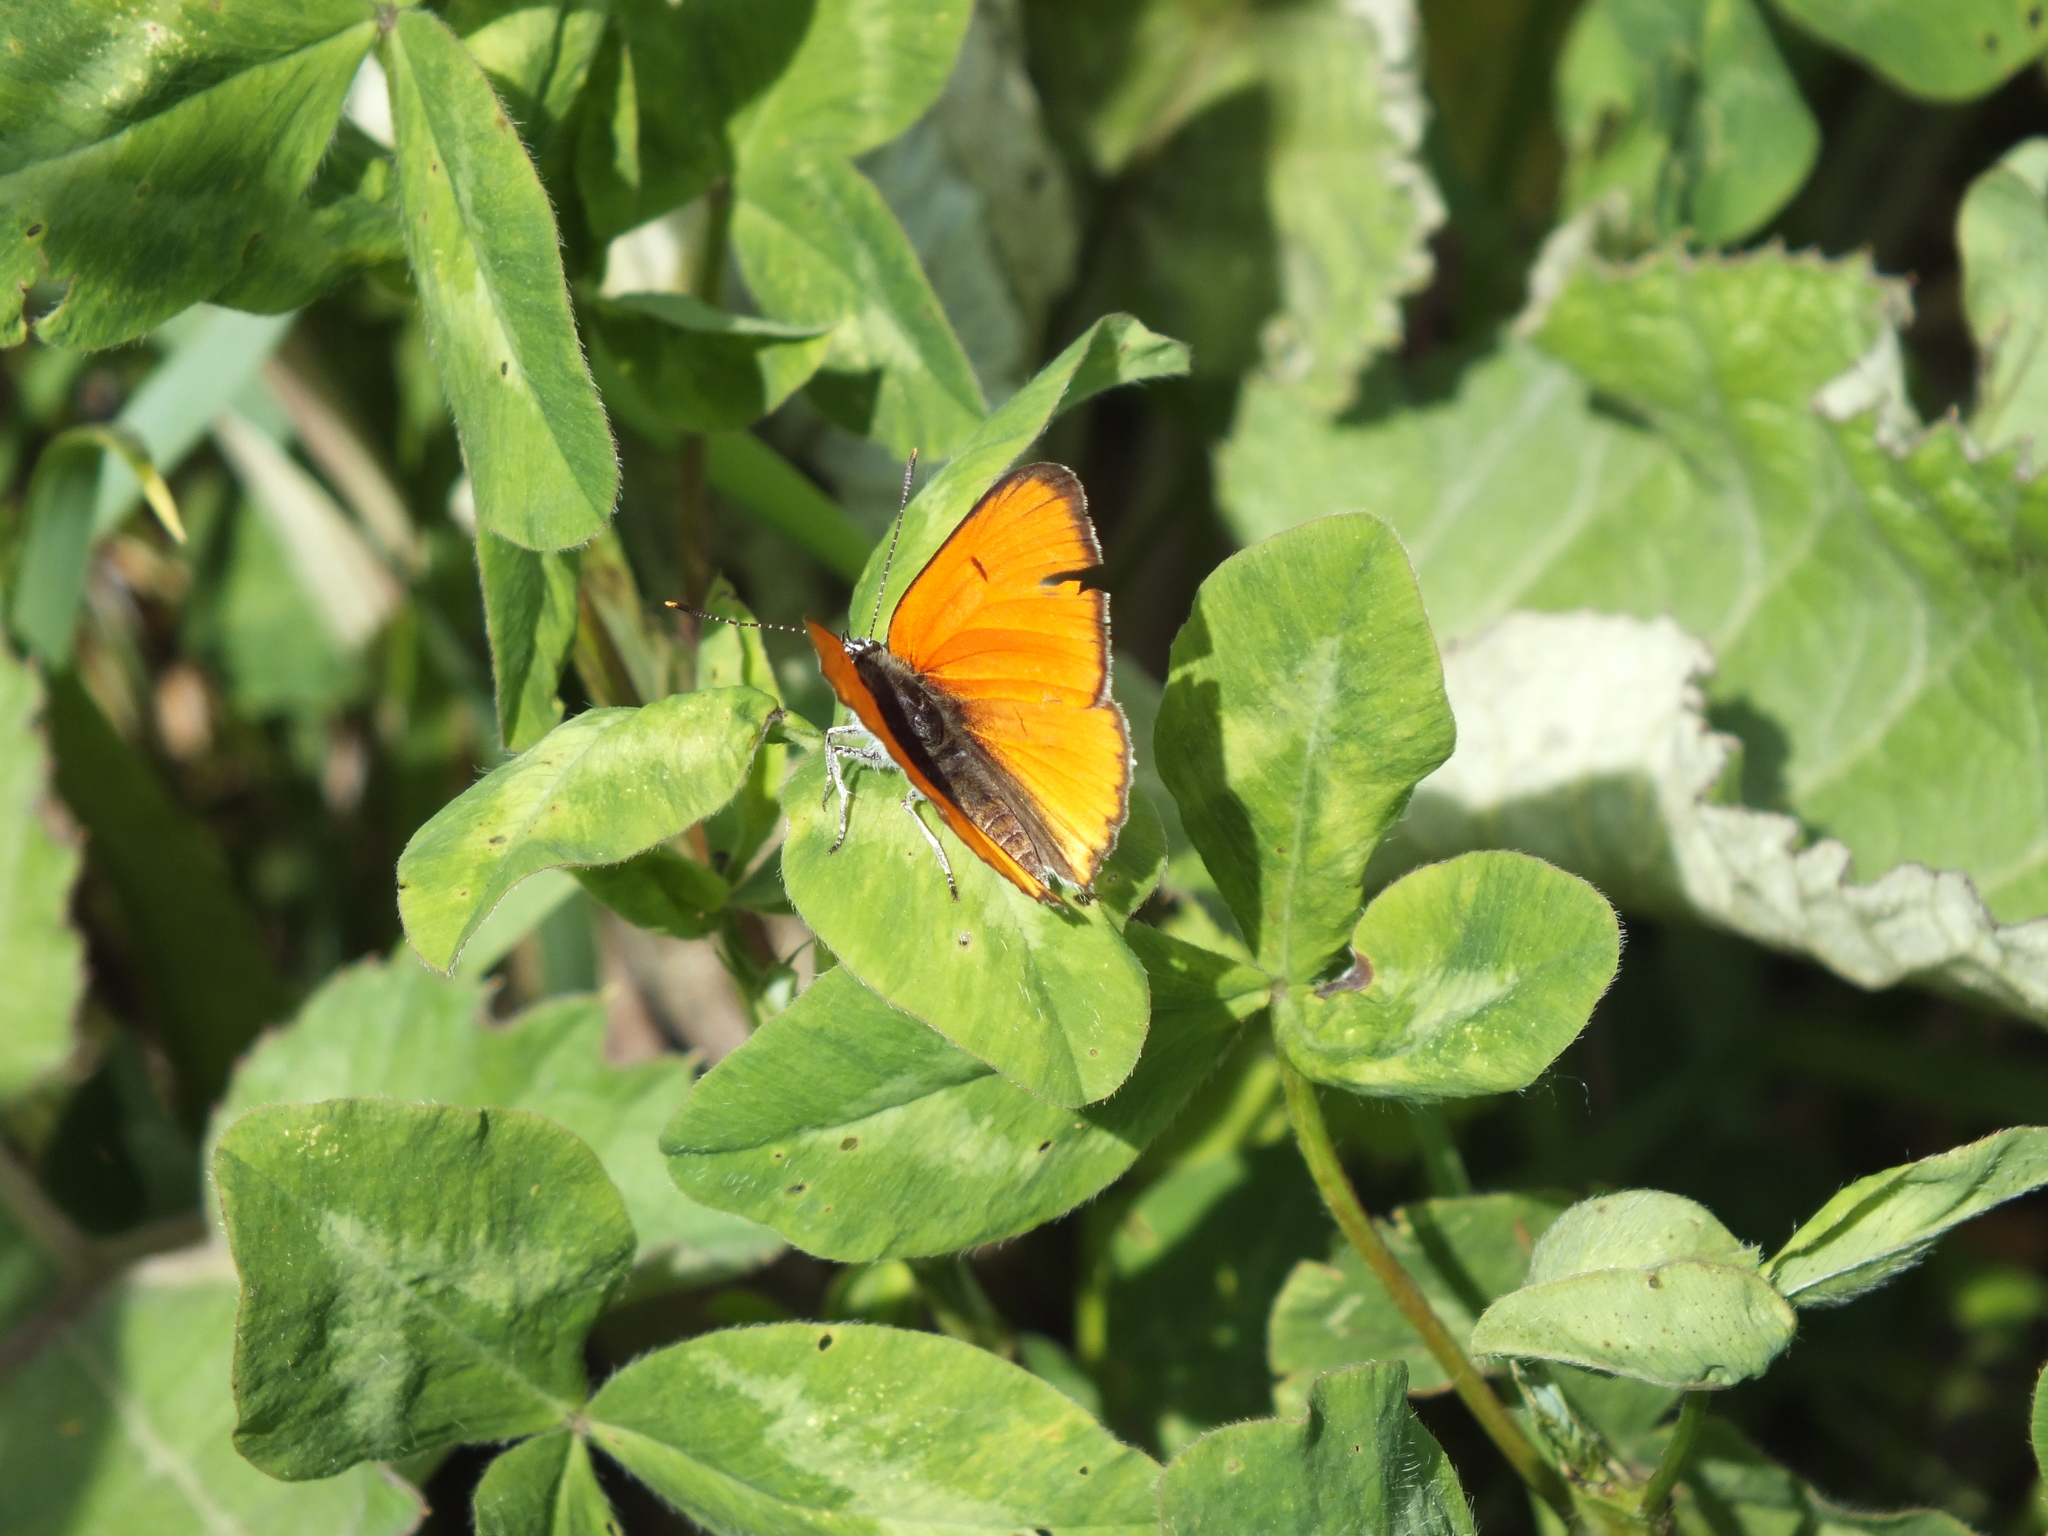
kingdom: Animalia
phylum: Arthropoda
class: Insecta
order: Lepidoptera
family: Lycaenidae
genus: Lycaena
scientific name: Lycaena dispar
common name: Large copper
